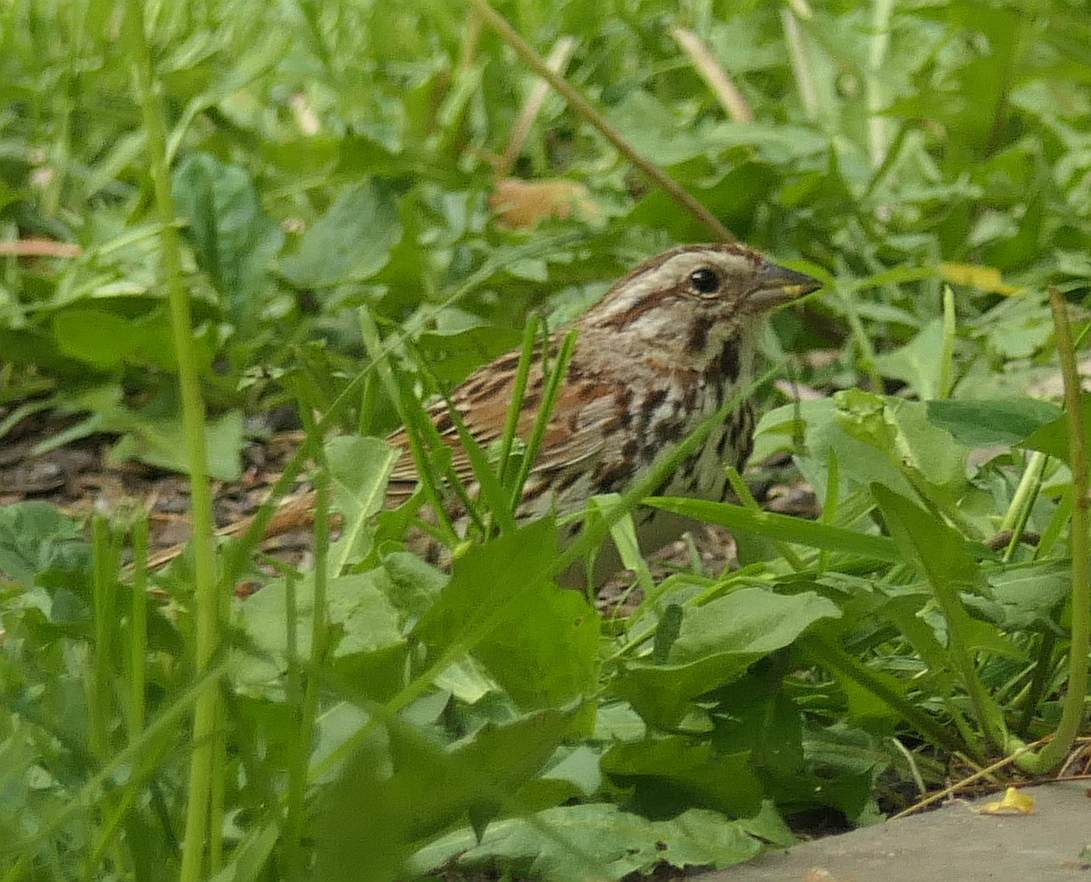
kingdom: Animalia
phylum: Chordata
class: Aves
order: Passeriformes
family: Passerellidae
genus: Melospiza
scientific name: Melospiza melodia
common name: Song sparrow
